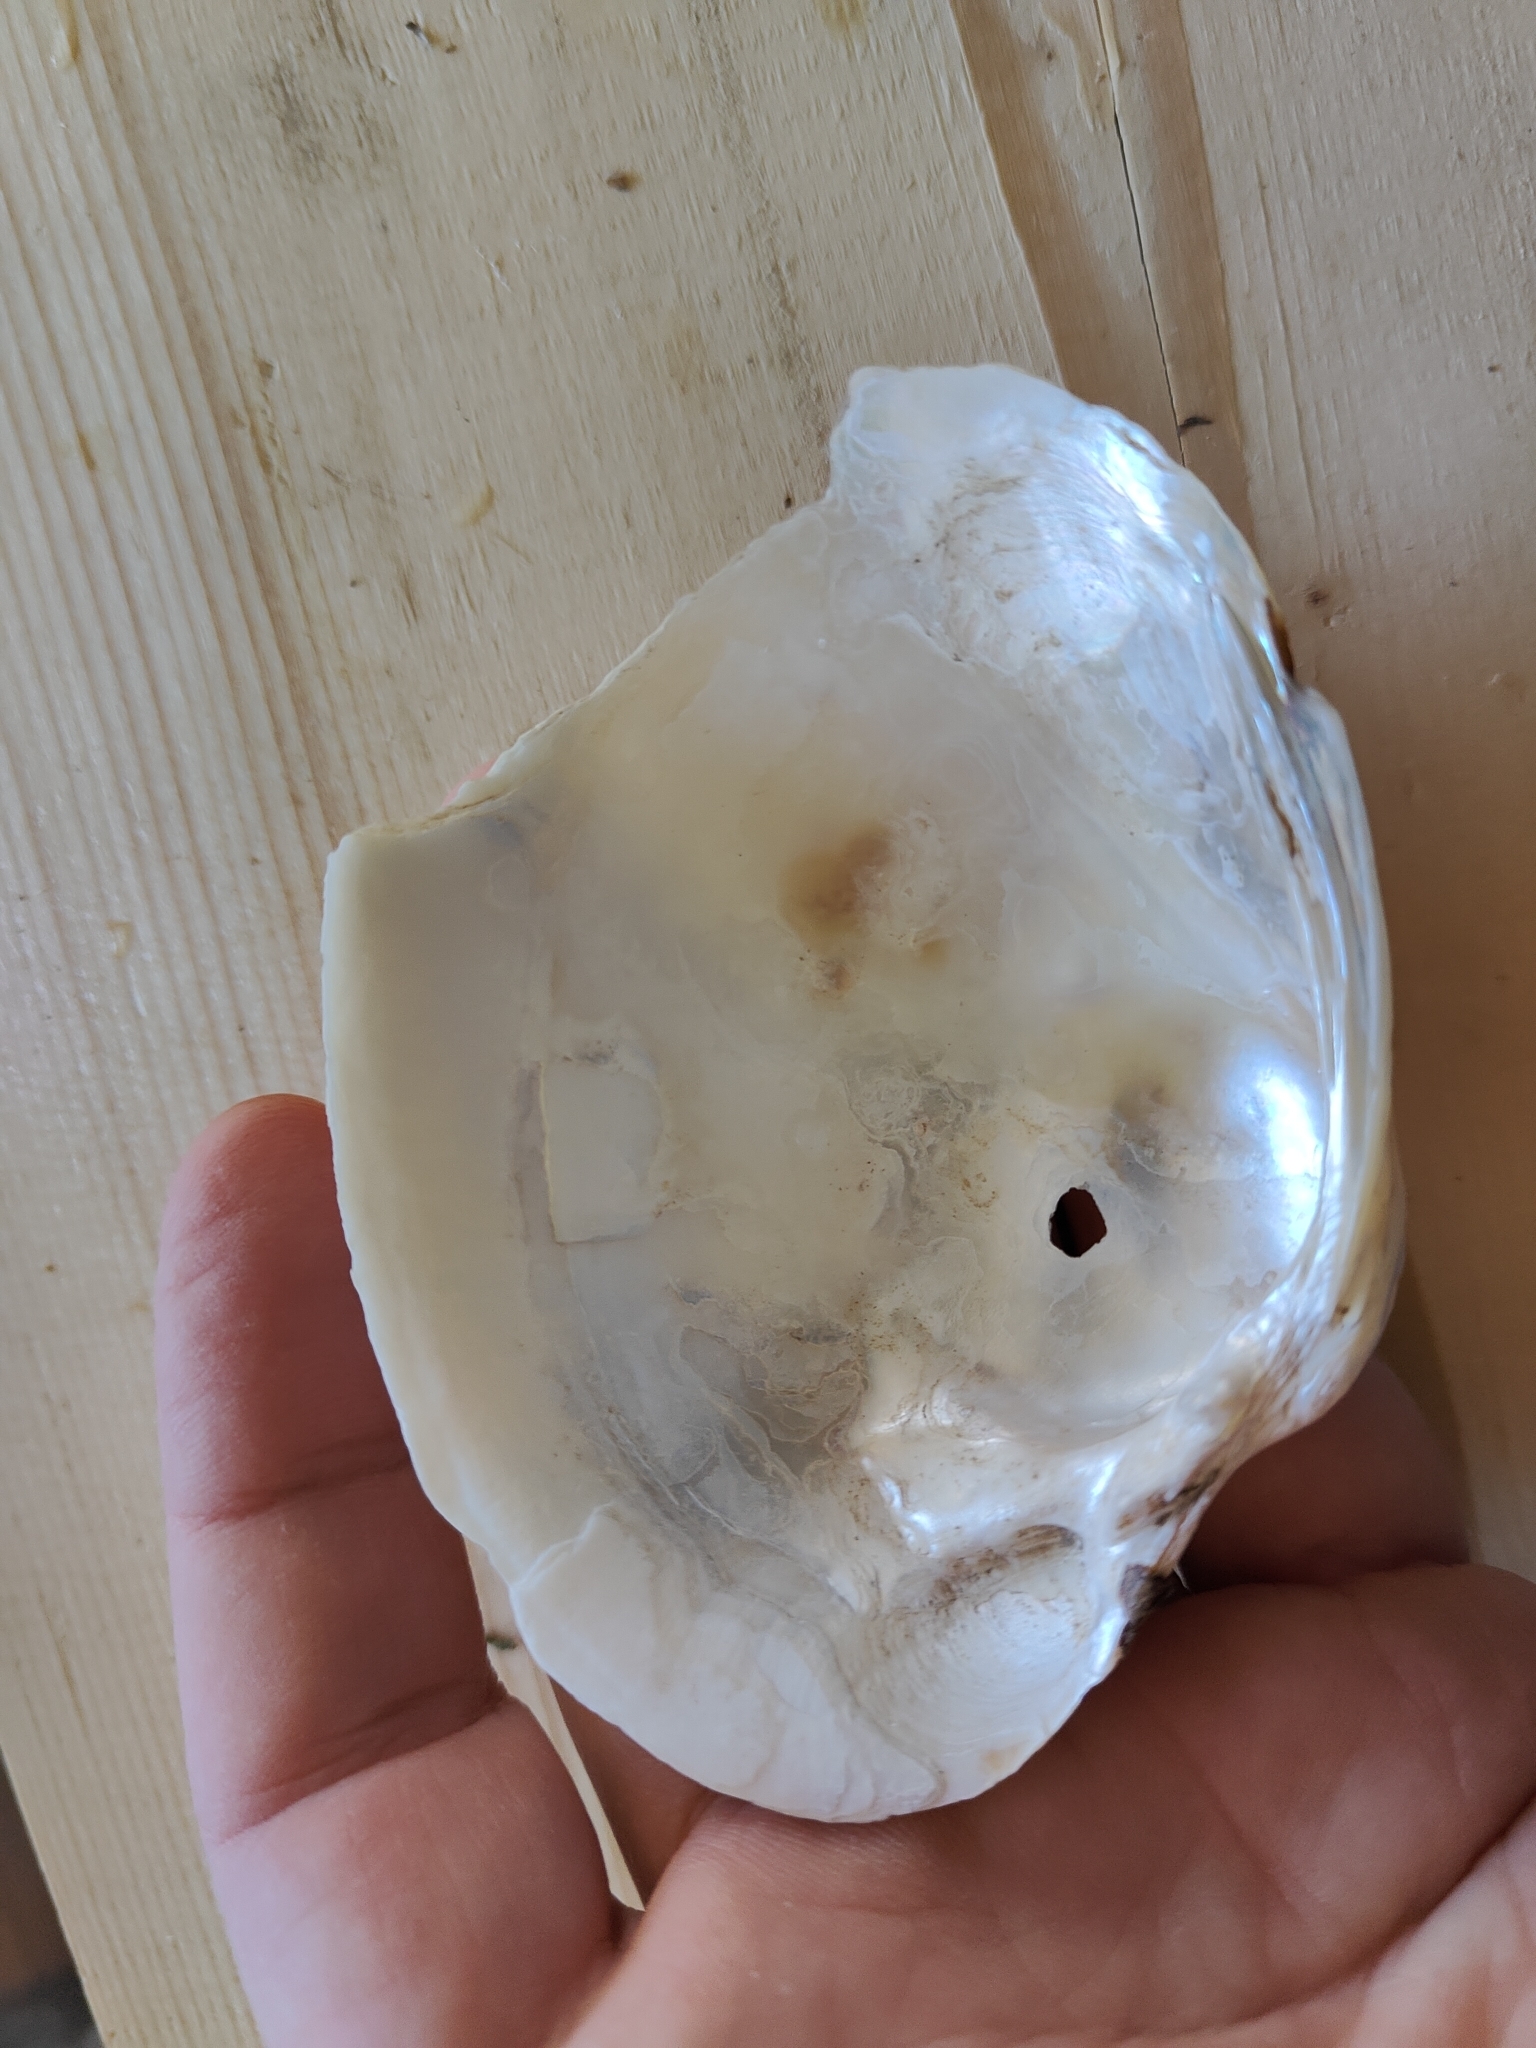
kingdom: Animalia
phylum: Mollusca
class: Bivalvia
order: Unionida
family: Unionidae
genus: Lampsilis
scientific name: Lampsilis cardium
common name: Plain pocketbook
